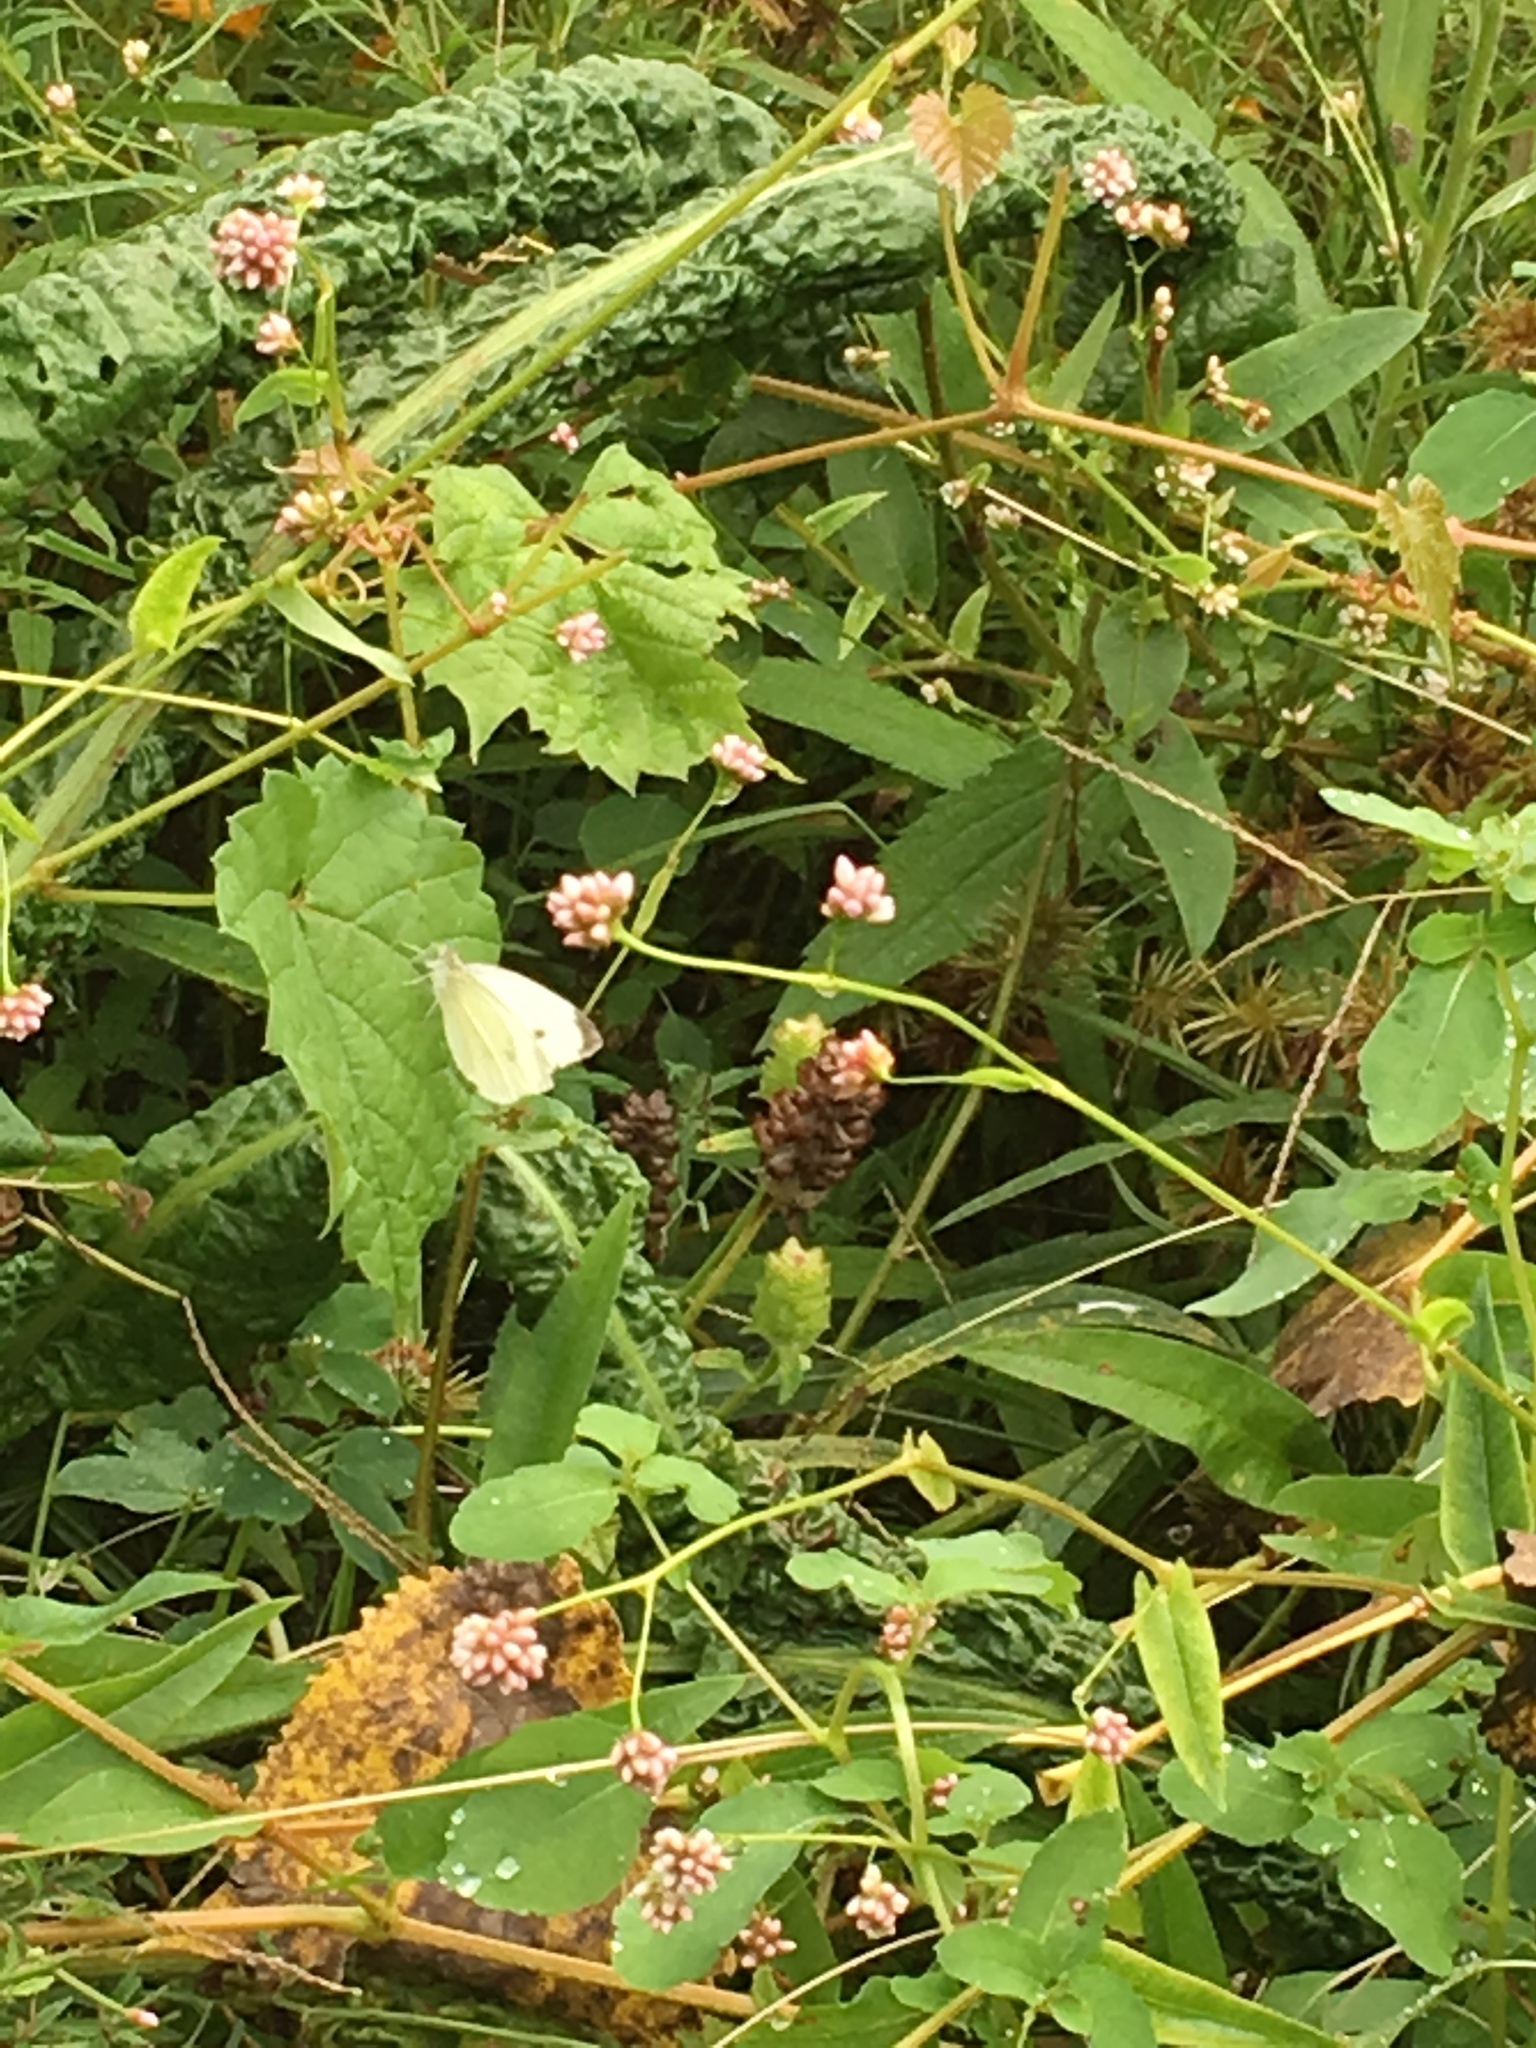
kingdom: Animalia
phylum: Arthropoda
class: Insecta
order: Lepidoptera
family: Pieridae
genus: Pieris
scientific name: Pieris rapae
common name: Small white
